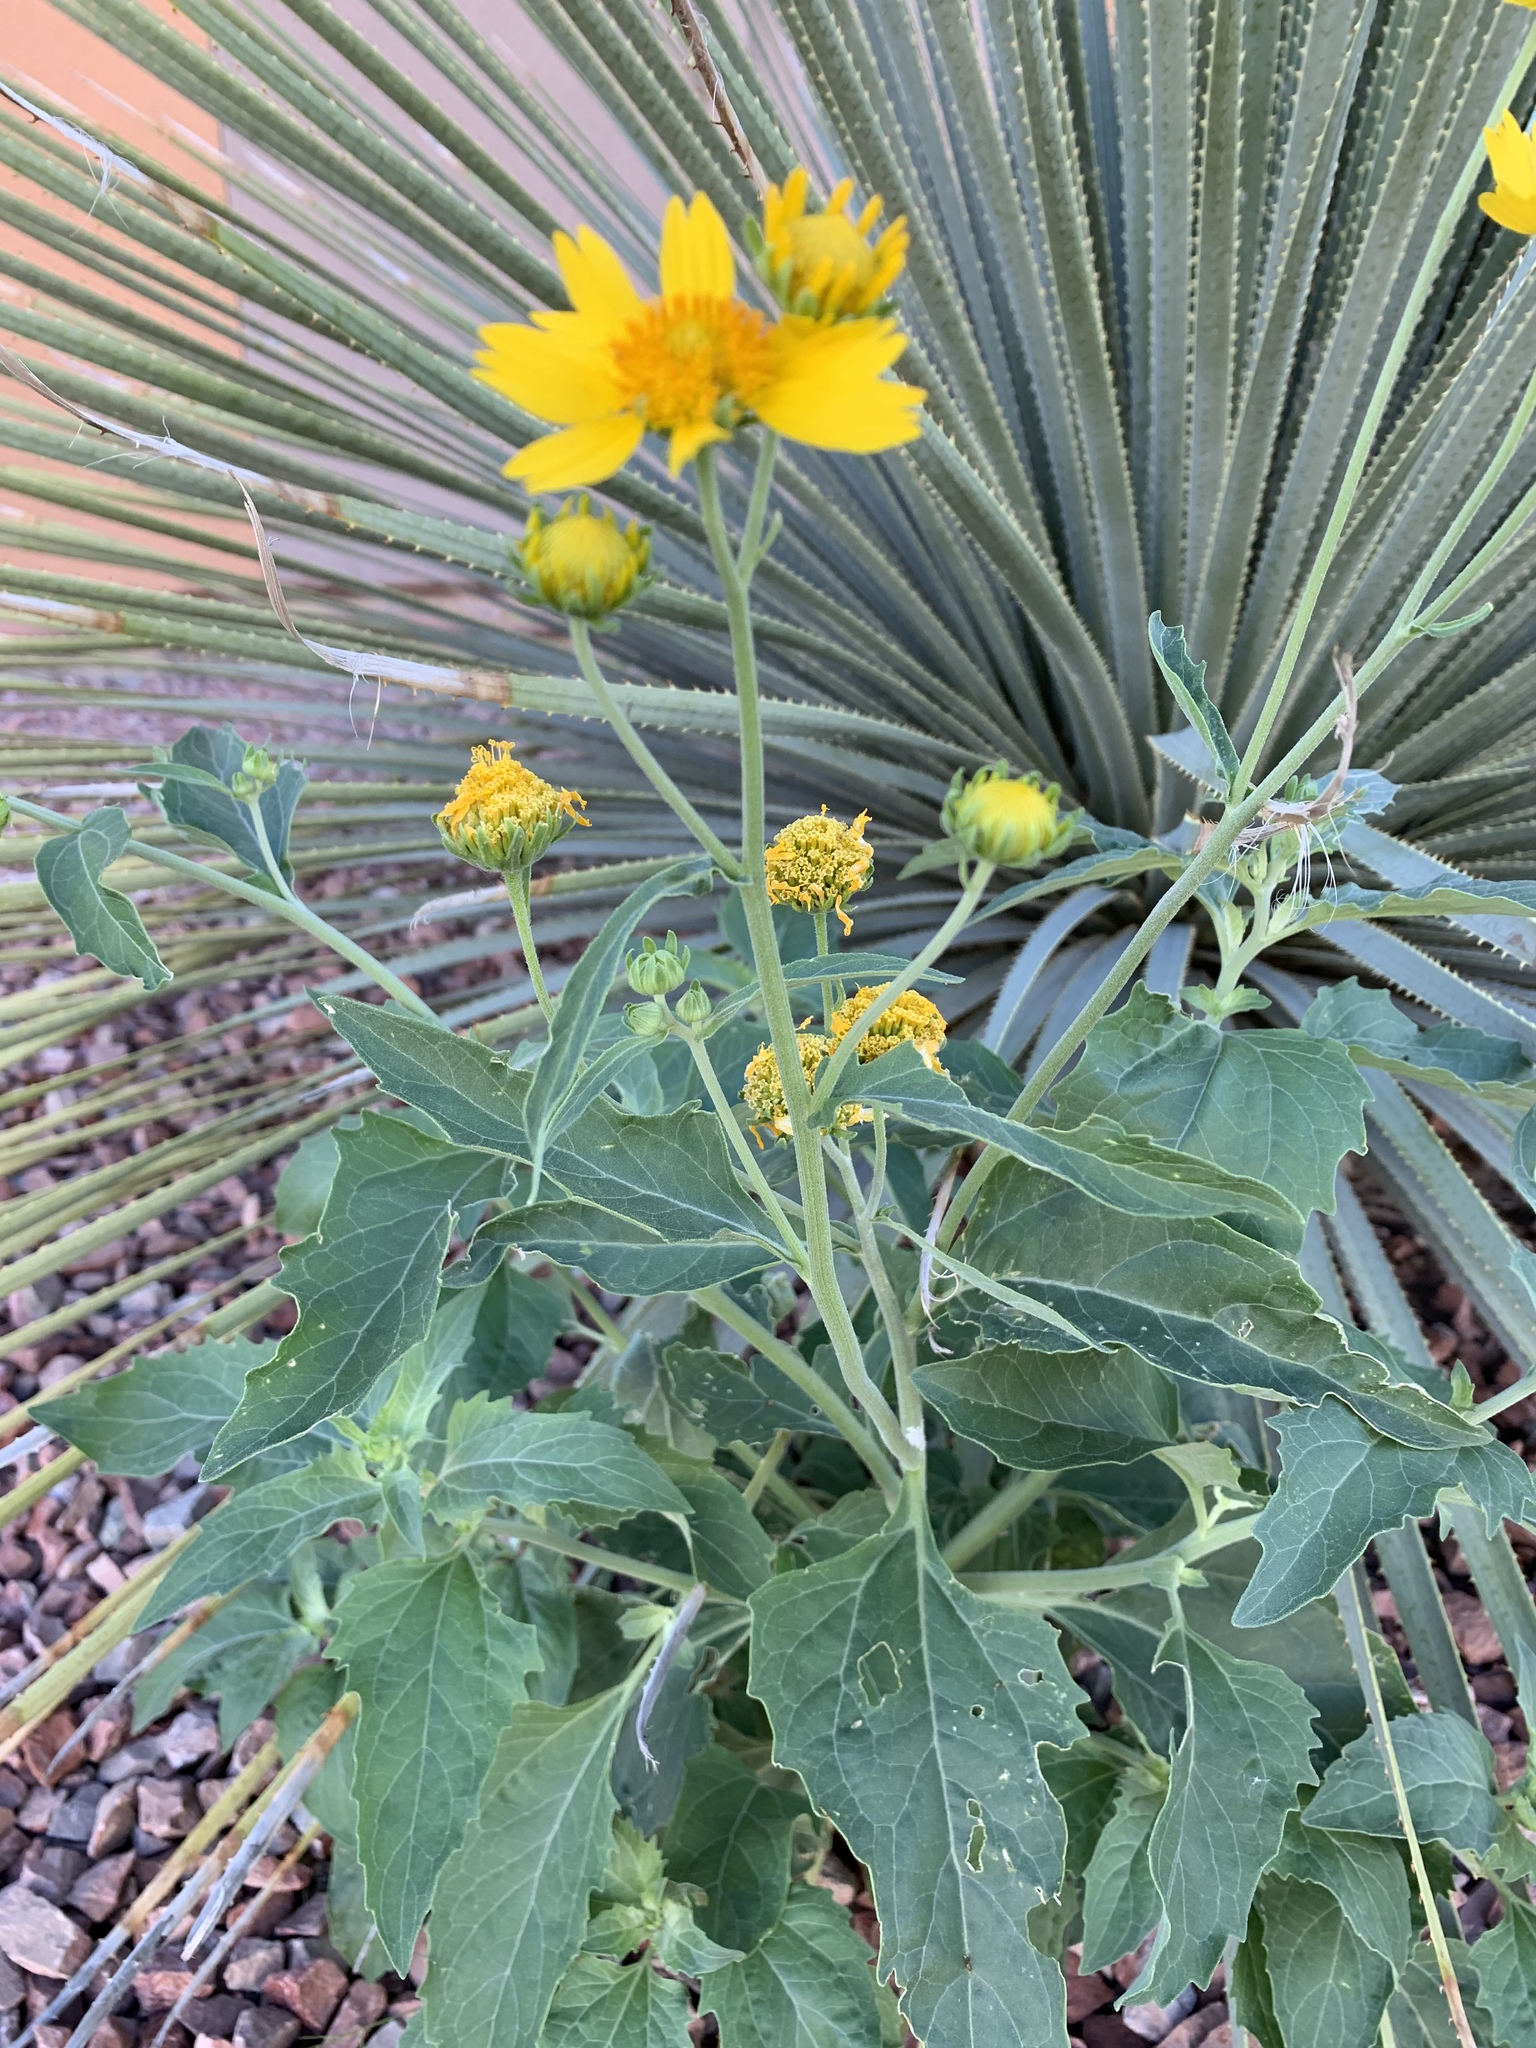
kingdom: Plantae
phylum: Tracheophyta
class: Magnoliopsida
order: Asterales
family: Asteraceae
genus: Verbesina
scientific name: Verbesina encelioides
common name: Golden crownbeard
